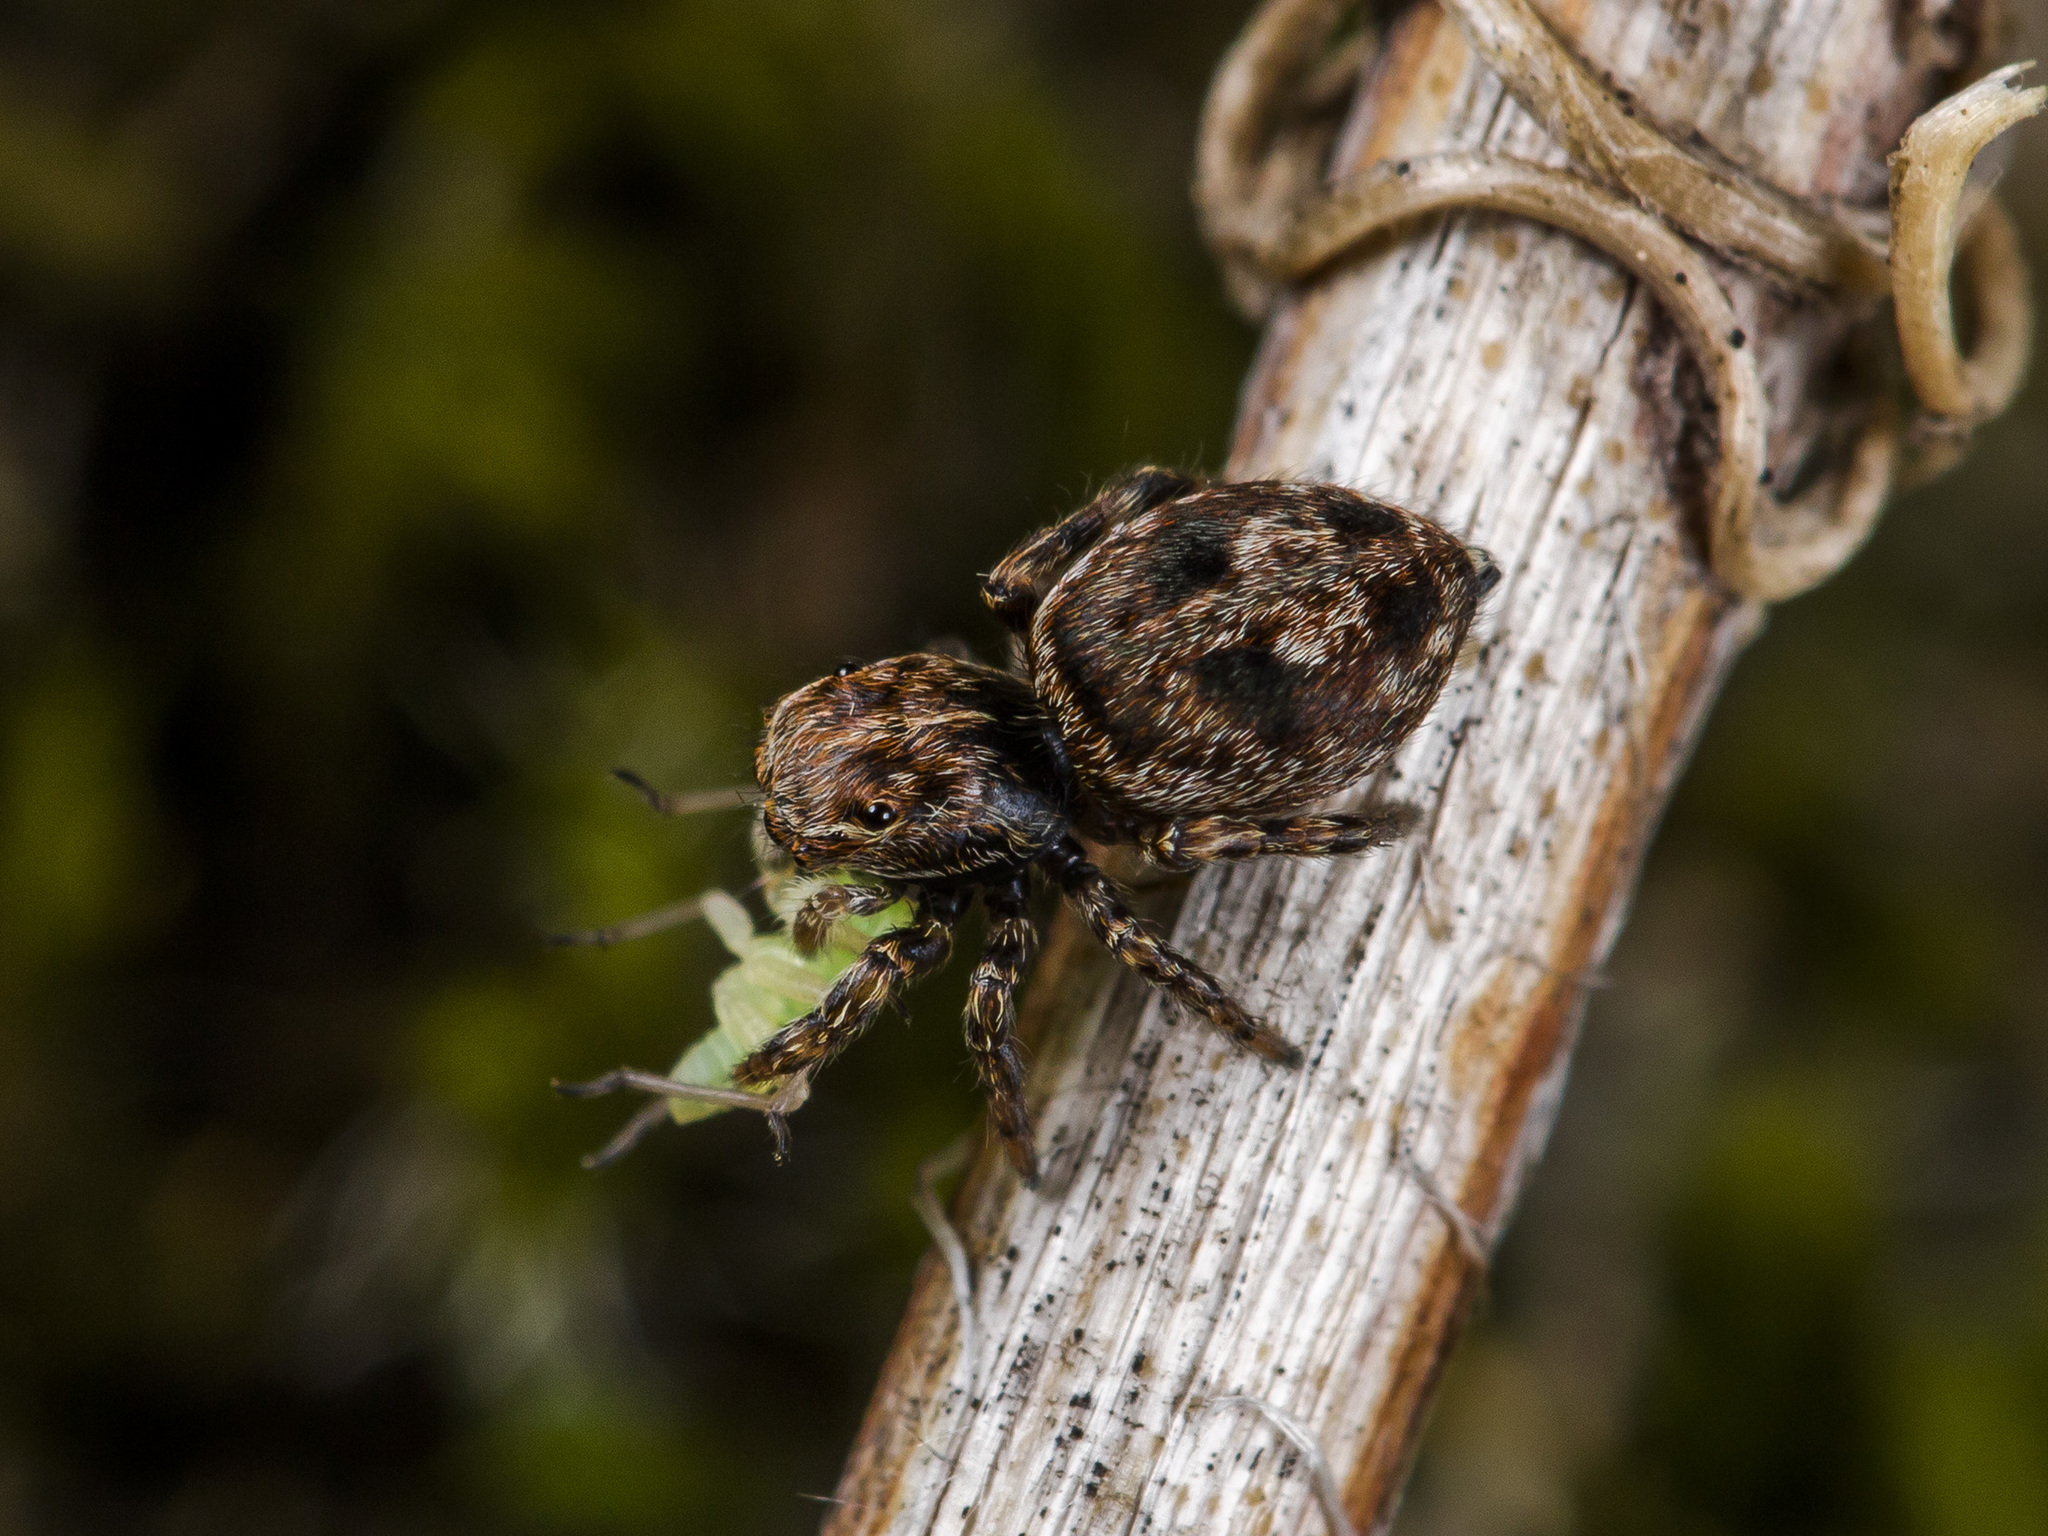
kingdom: Animalia
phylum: Arthropoda
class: Arachnida
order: Araneae
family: Salticidae
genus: Attulus
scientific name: Attulus monstrabilis
